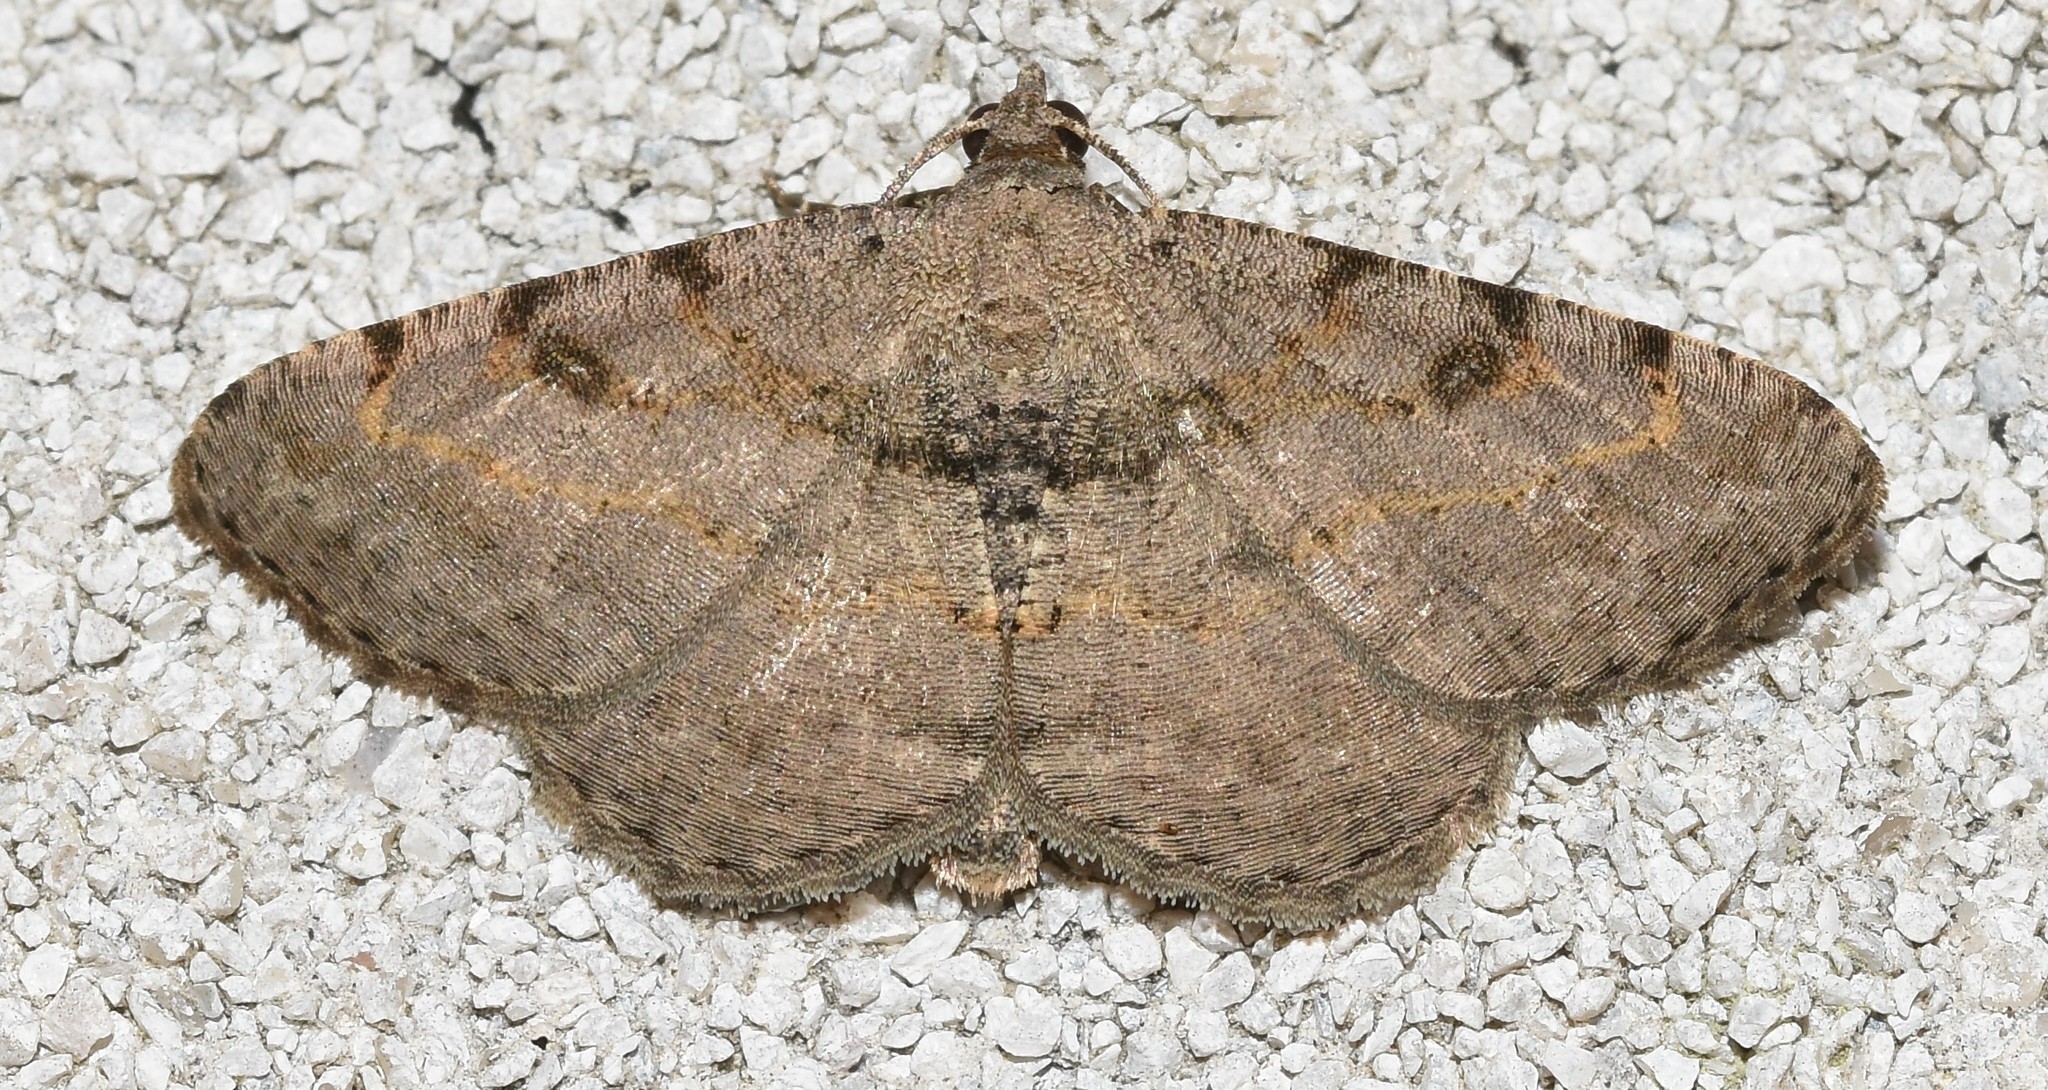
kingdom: Animalia
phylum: Arthropoda
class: Insecta
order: Lepidoptera
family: Geometridae
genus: Digrammia
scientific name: Digrammia gnophosaria
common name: Hollow-spotted angle
